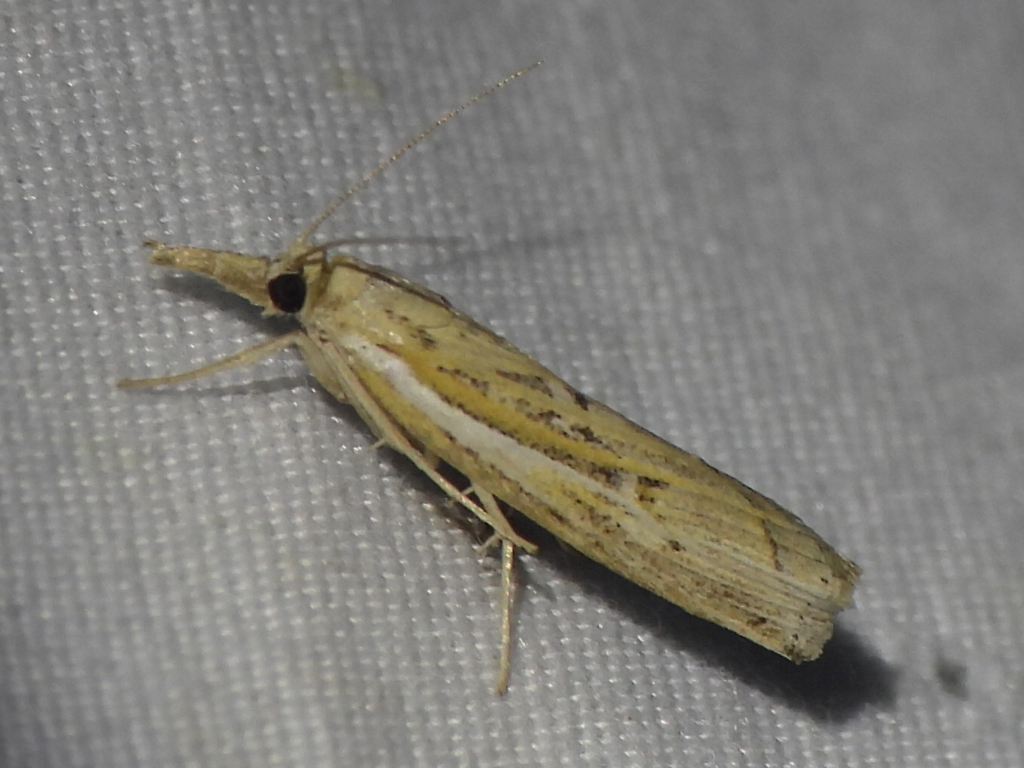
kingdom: Animalia
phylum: Arthropoda
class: Insecta
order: Lepidoptera
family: Crambidae
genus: Fissicrambus
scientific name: Fissicrambus fissiradiellus
